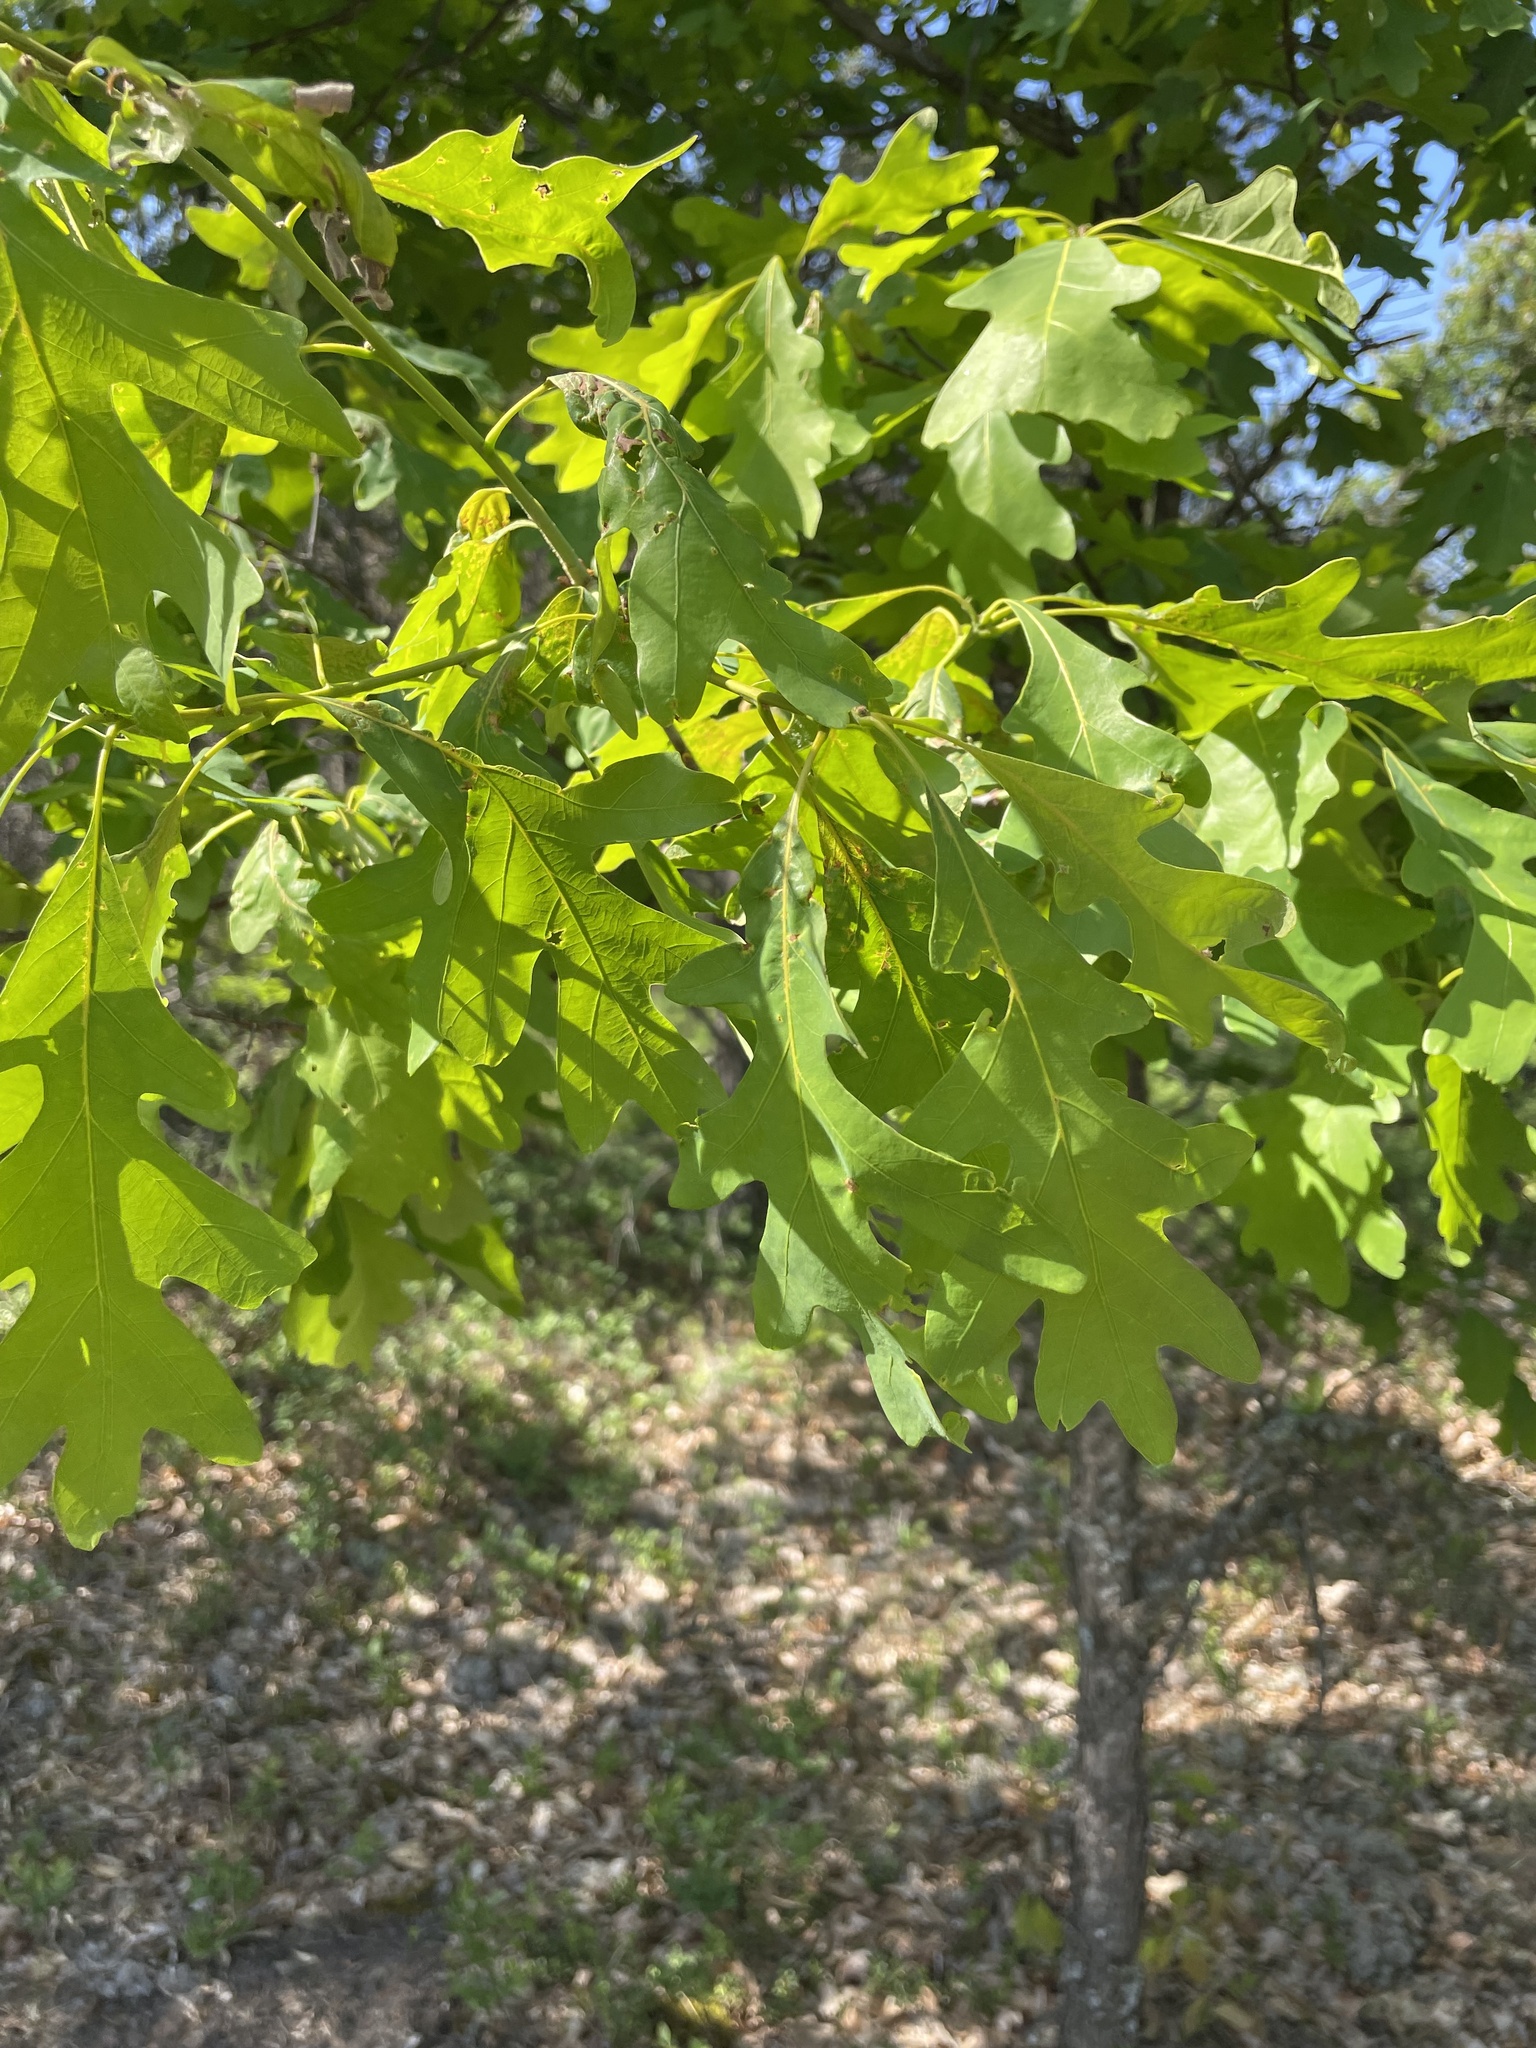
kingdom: Plantae
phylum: Tracheophyta
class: Magnoliopsida
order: Fagales
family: Fagaceae
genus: Quercus
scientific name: Quercus alba
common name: White oak
